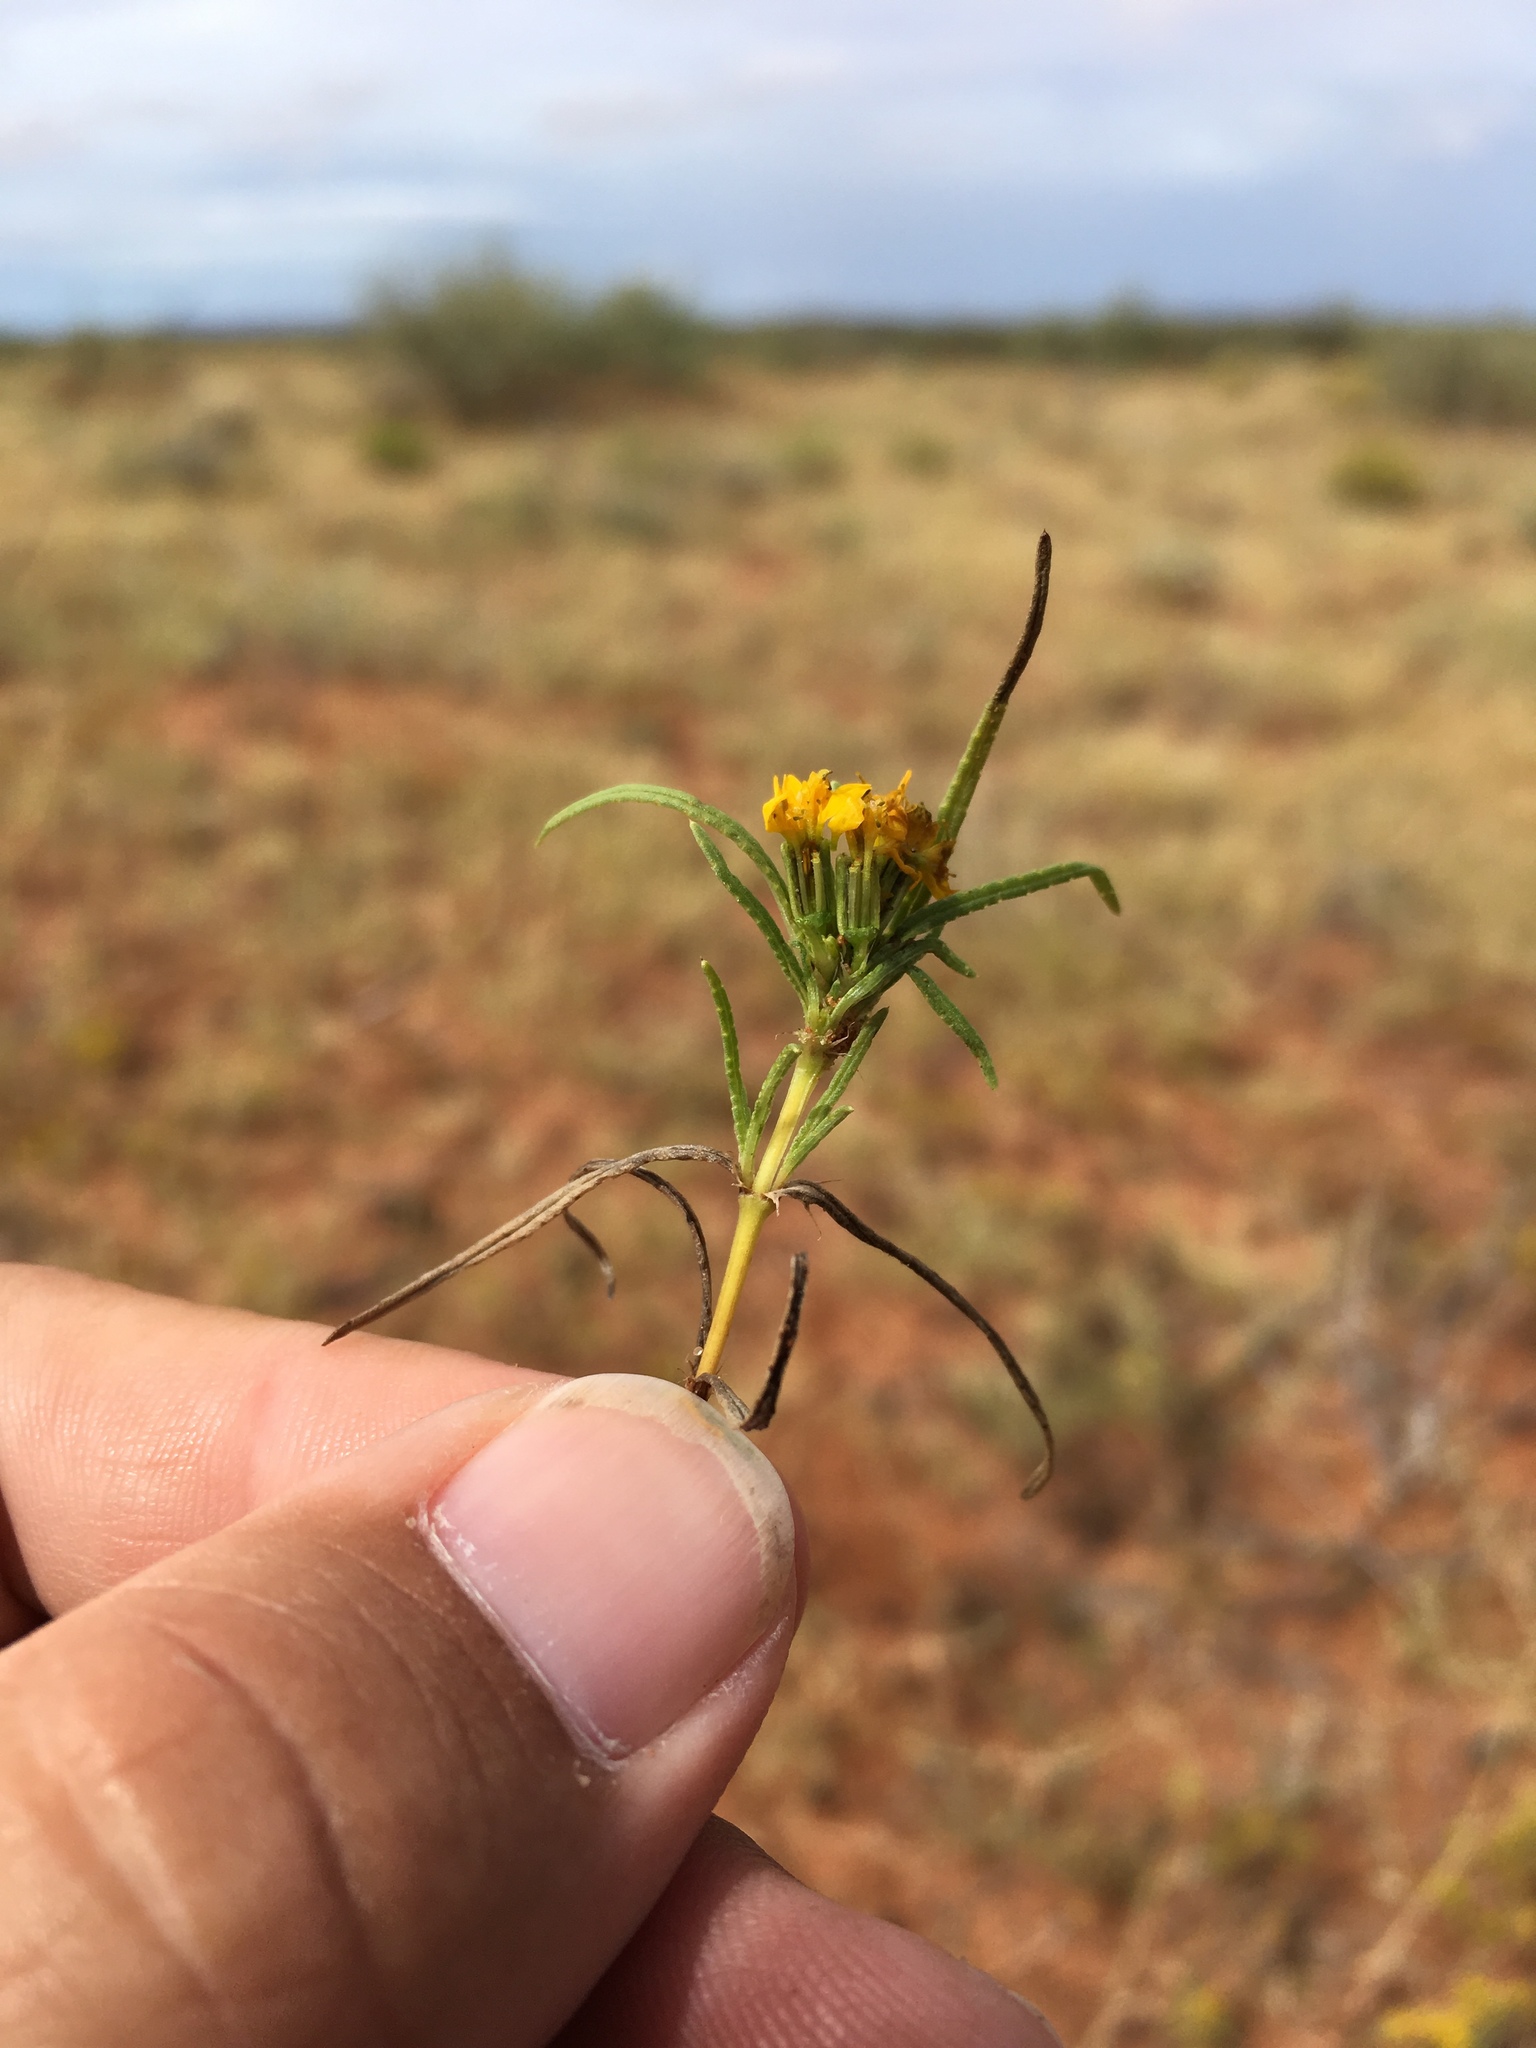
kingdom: Plantae
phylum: Tracheophyta
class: Magnoliopsida
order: Asterales
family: Asteraceae
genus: Pectis
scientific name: Pectis angustifolia
